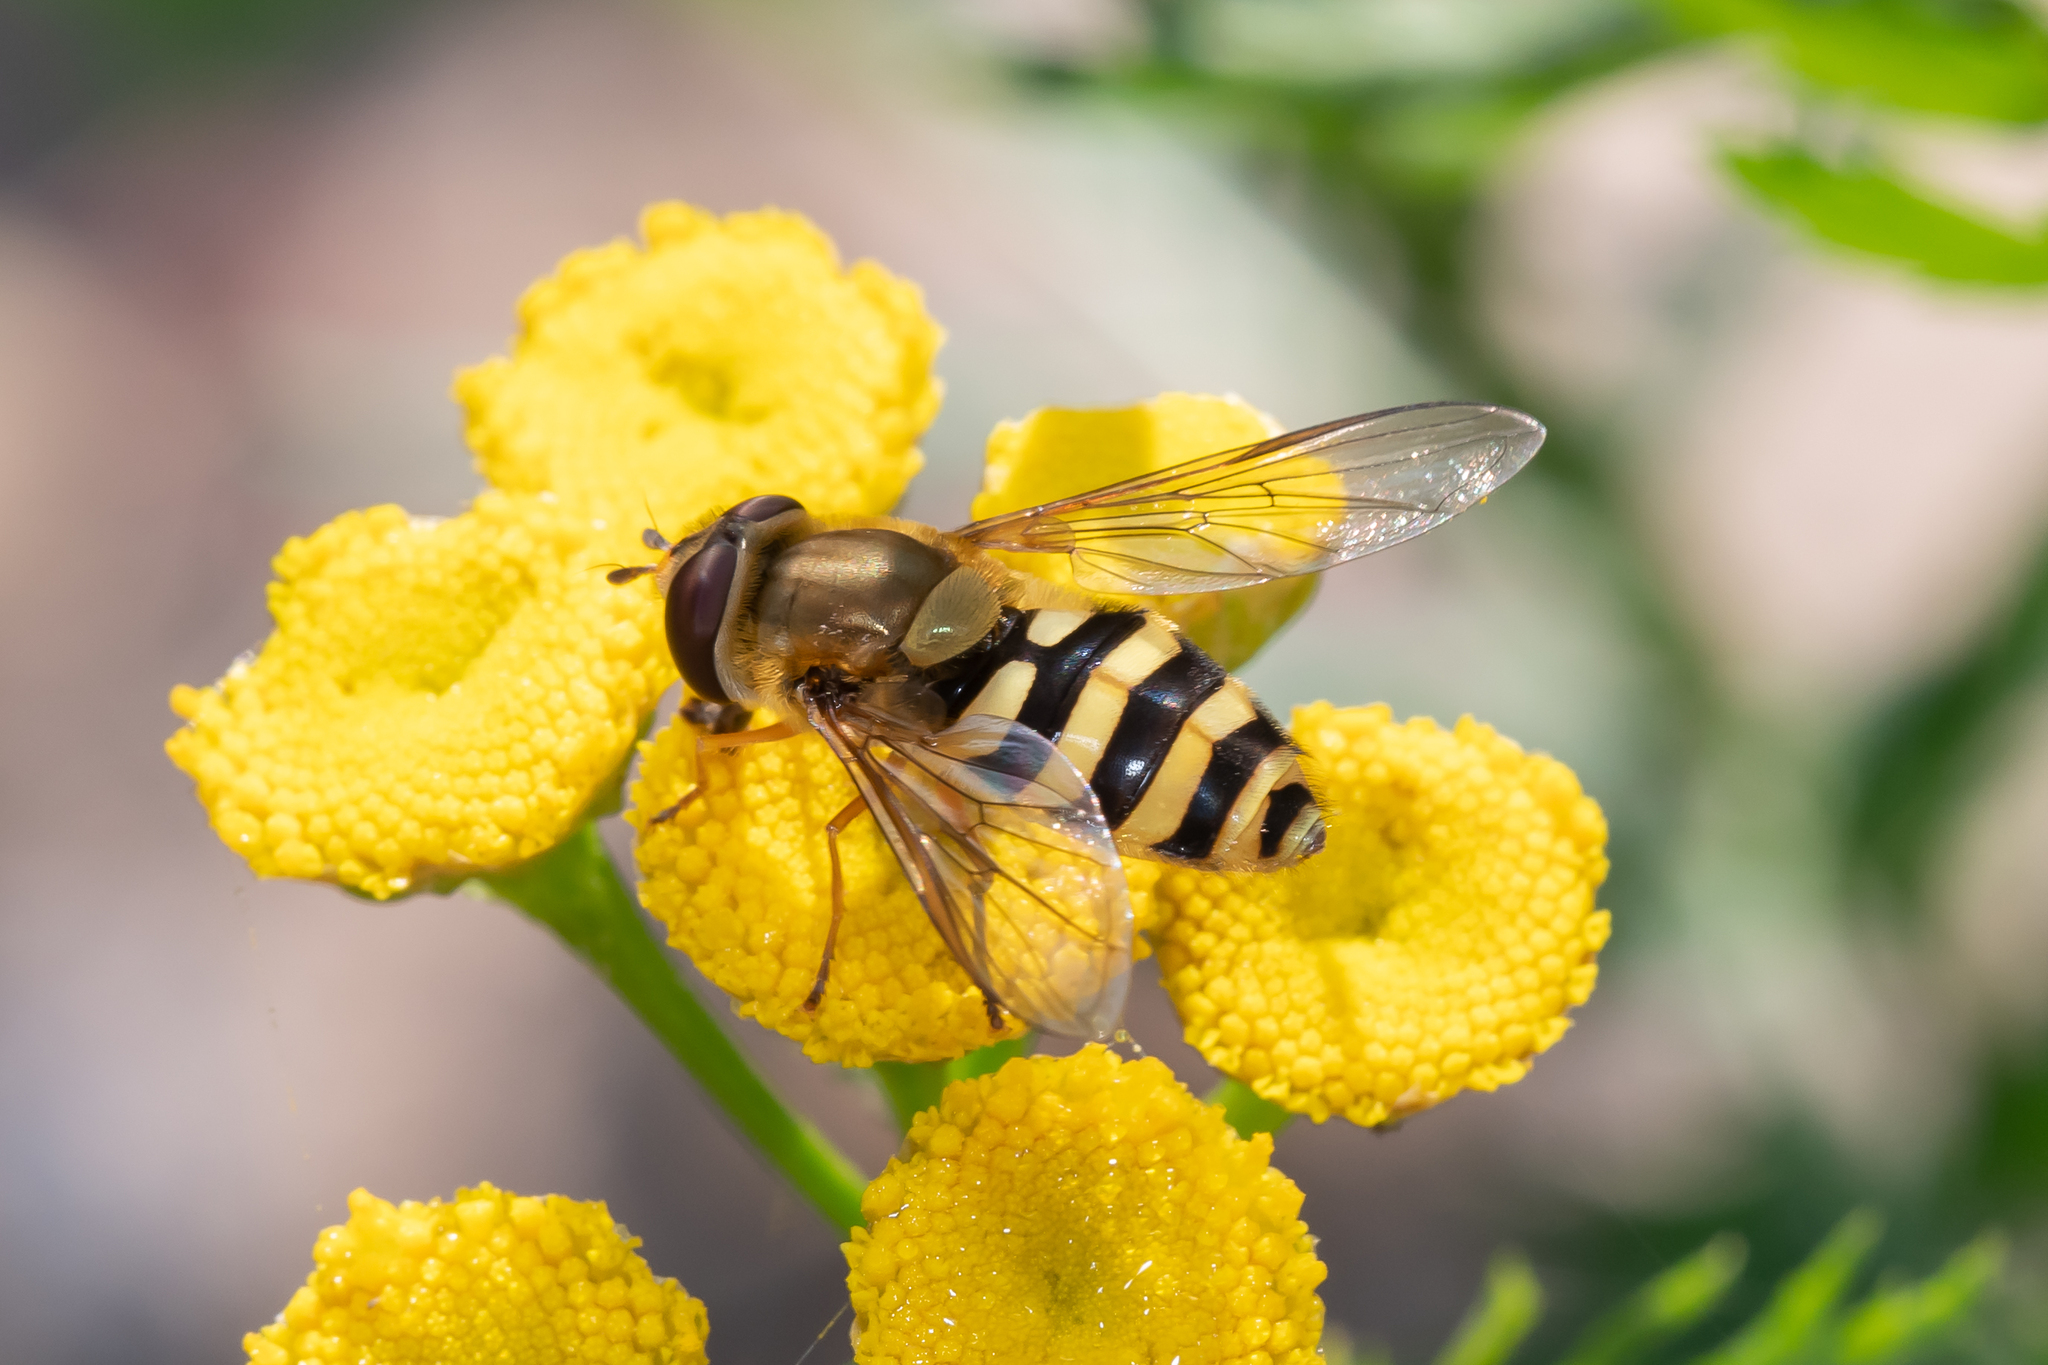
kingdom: Animalia
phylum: Arthropoda
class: Insecta
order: Diptera
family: Syrphidae
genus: Syrphus
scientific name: Syrphus ribesii
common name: Common flower fly
